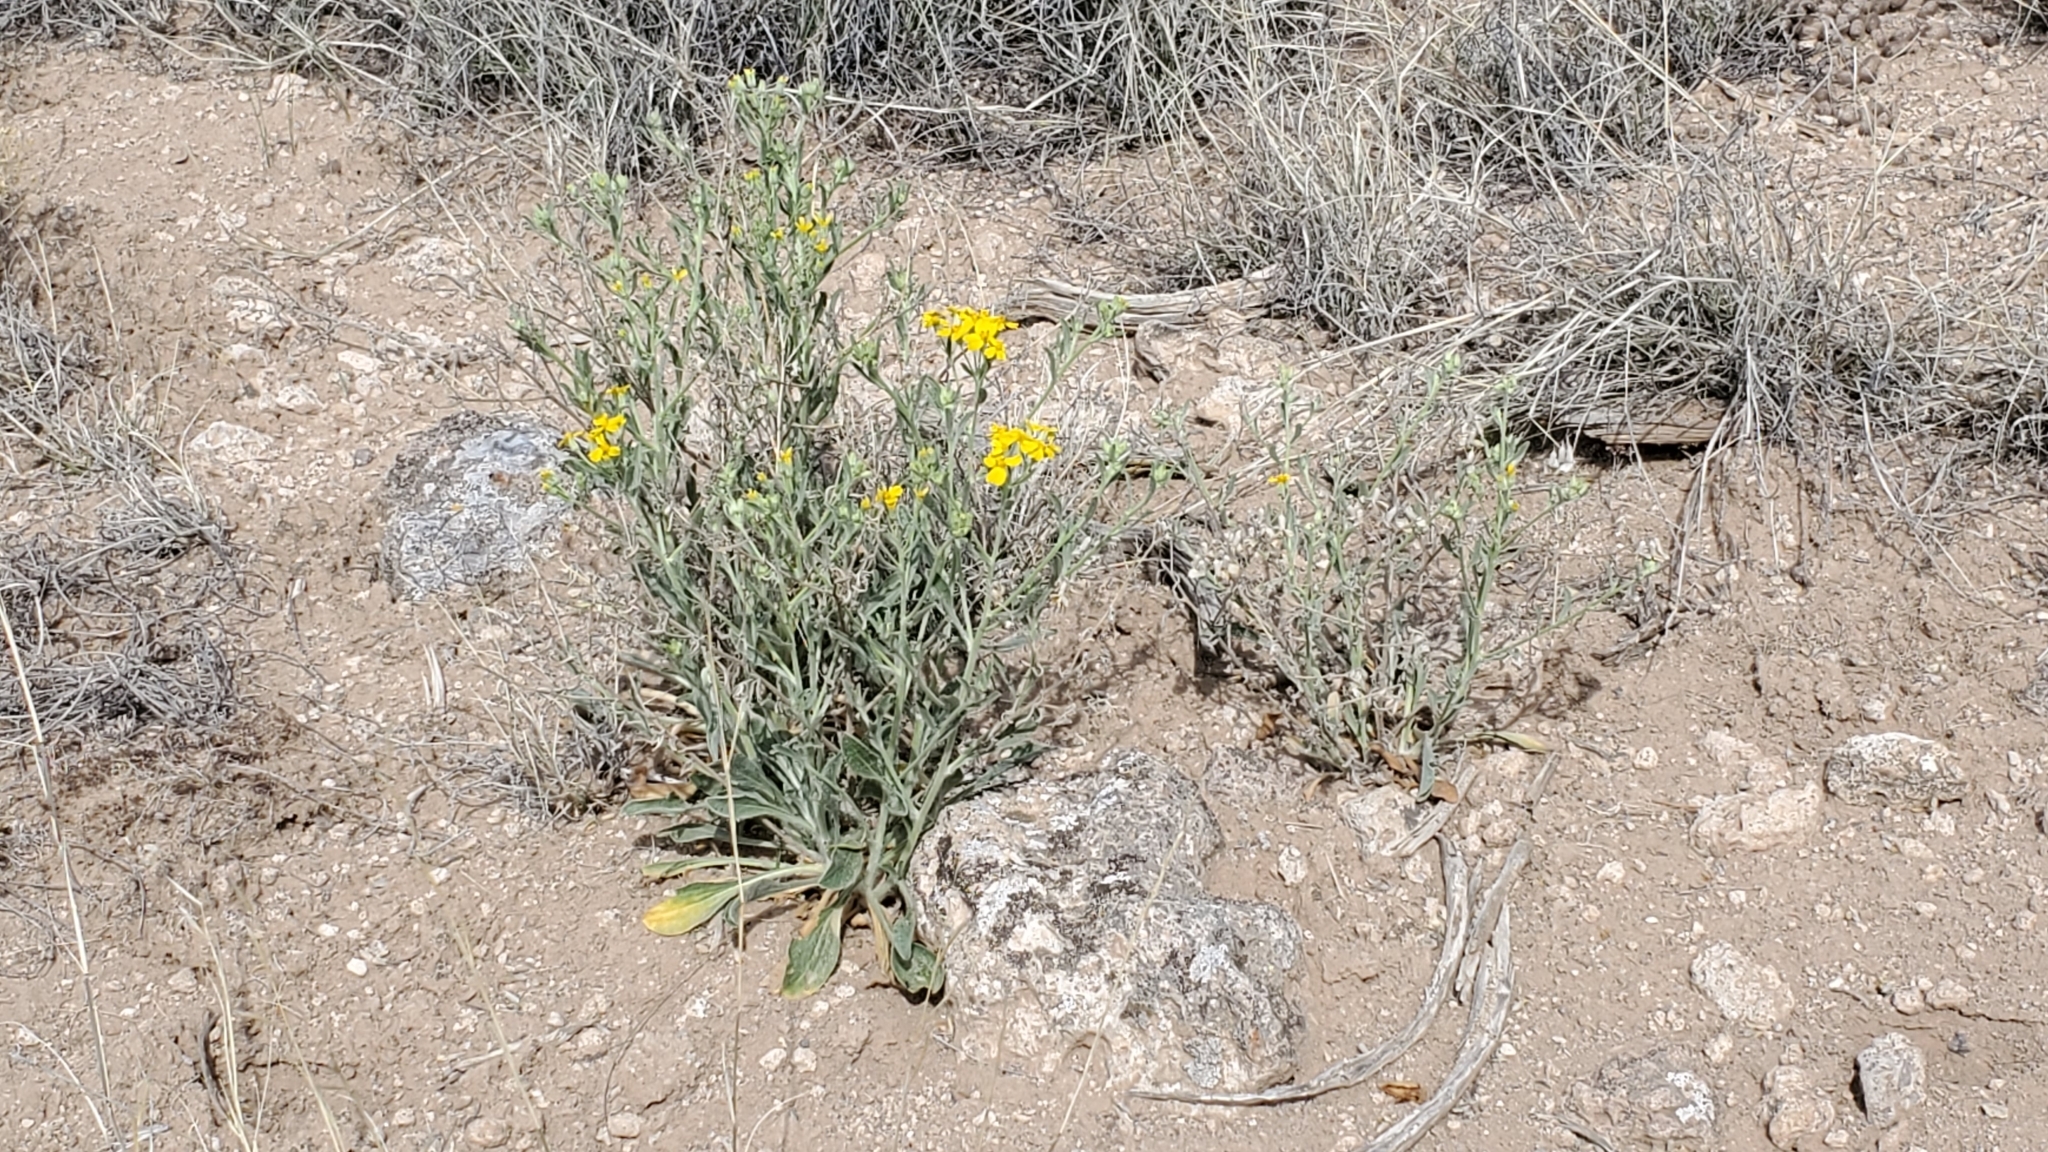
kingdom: Plantae
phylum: Tracheophyta
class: Magnoliopsida
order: Asterales
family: Asteraceae
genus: Psilostrophe
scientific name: Psilostrophe tagetina
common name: Marigold paper-flower
